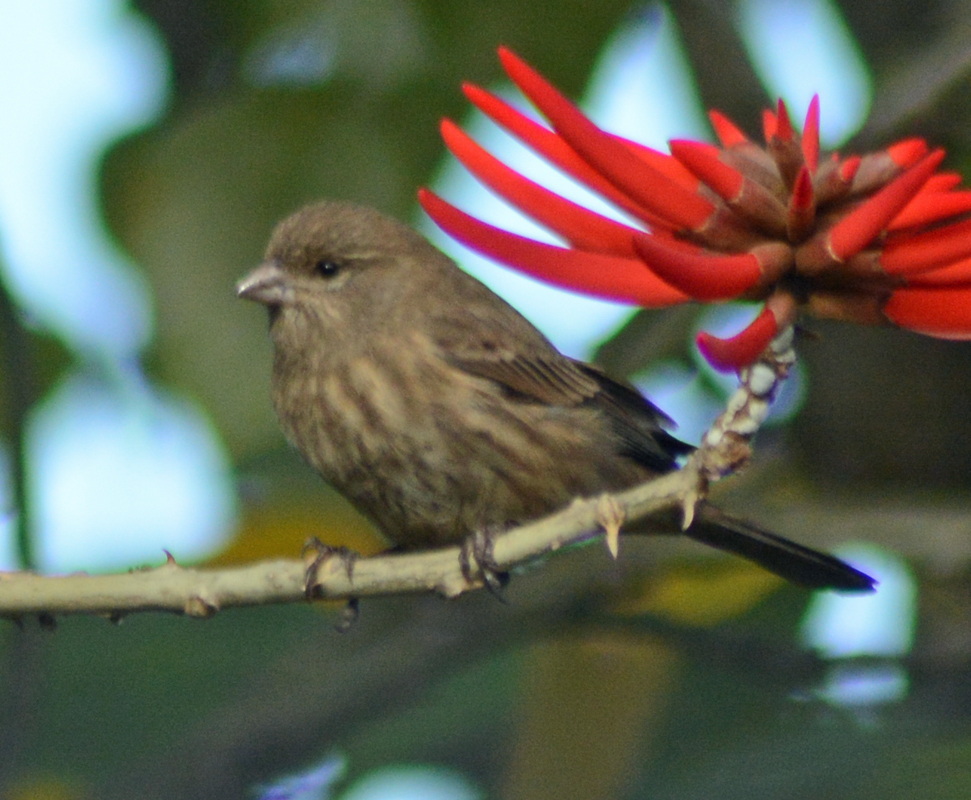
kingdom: Animalia
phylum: Chordata
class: Aves
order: Passeriformes
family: Fringillidae
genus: Haemorhous
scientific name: Haemorhous mexicanus
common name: House finch
